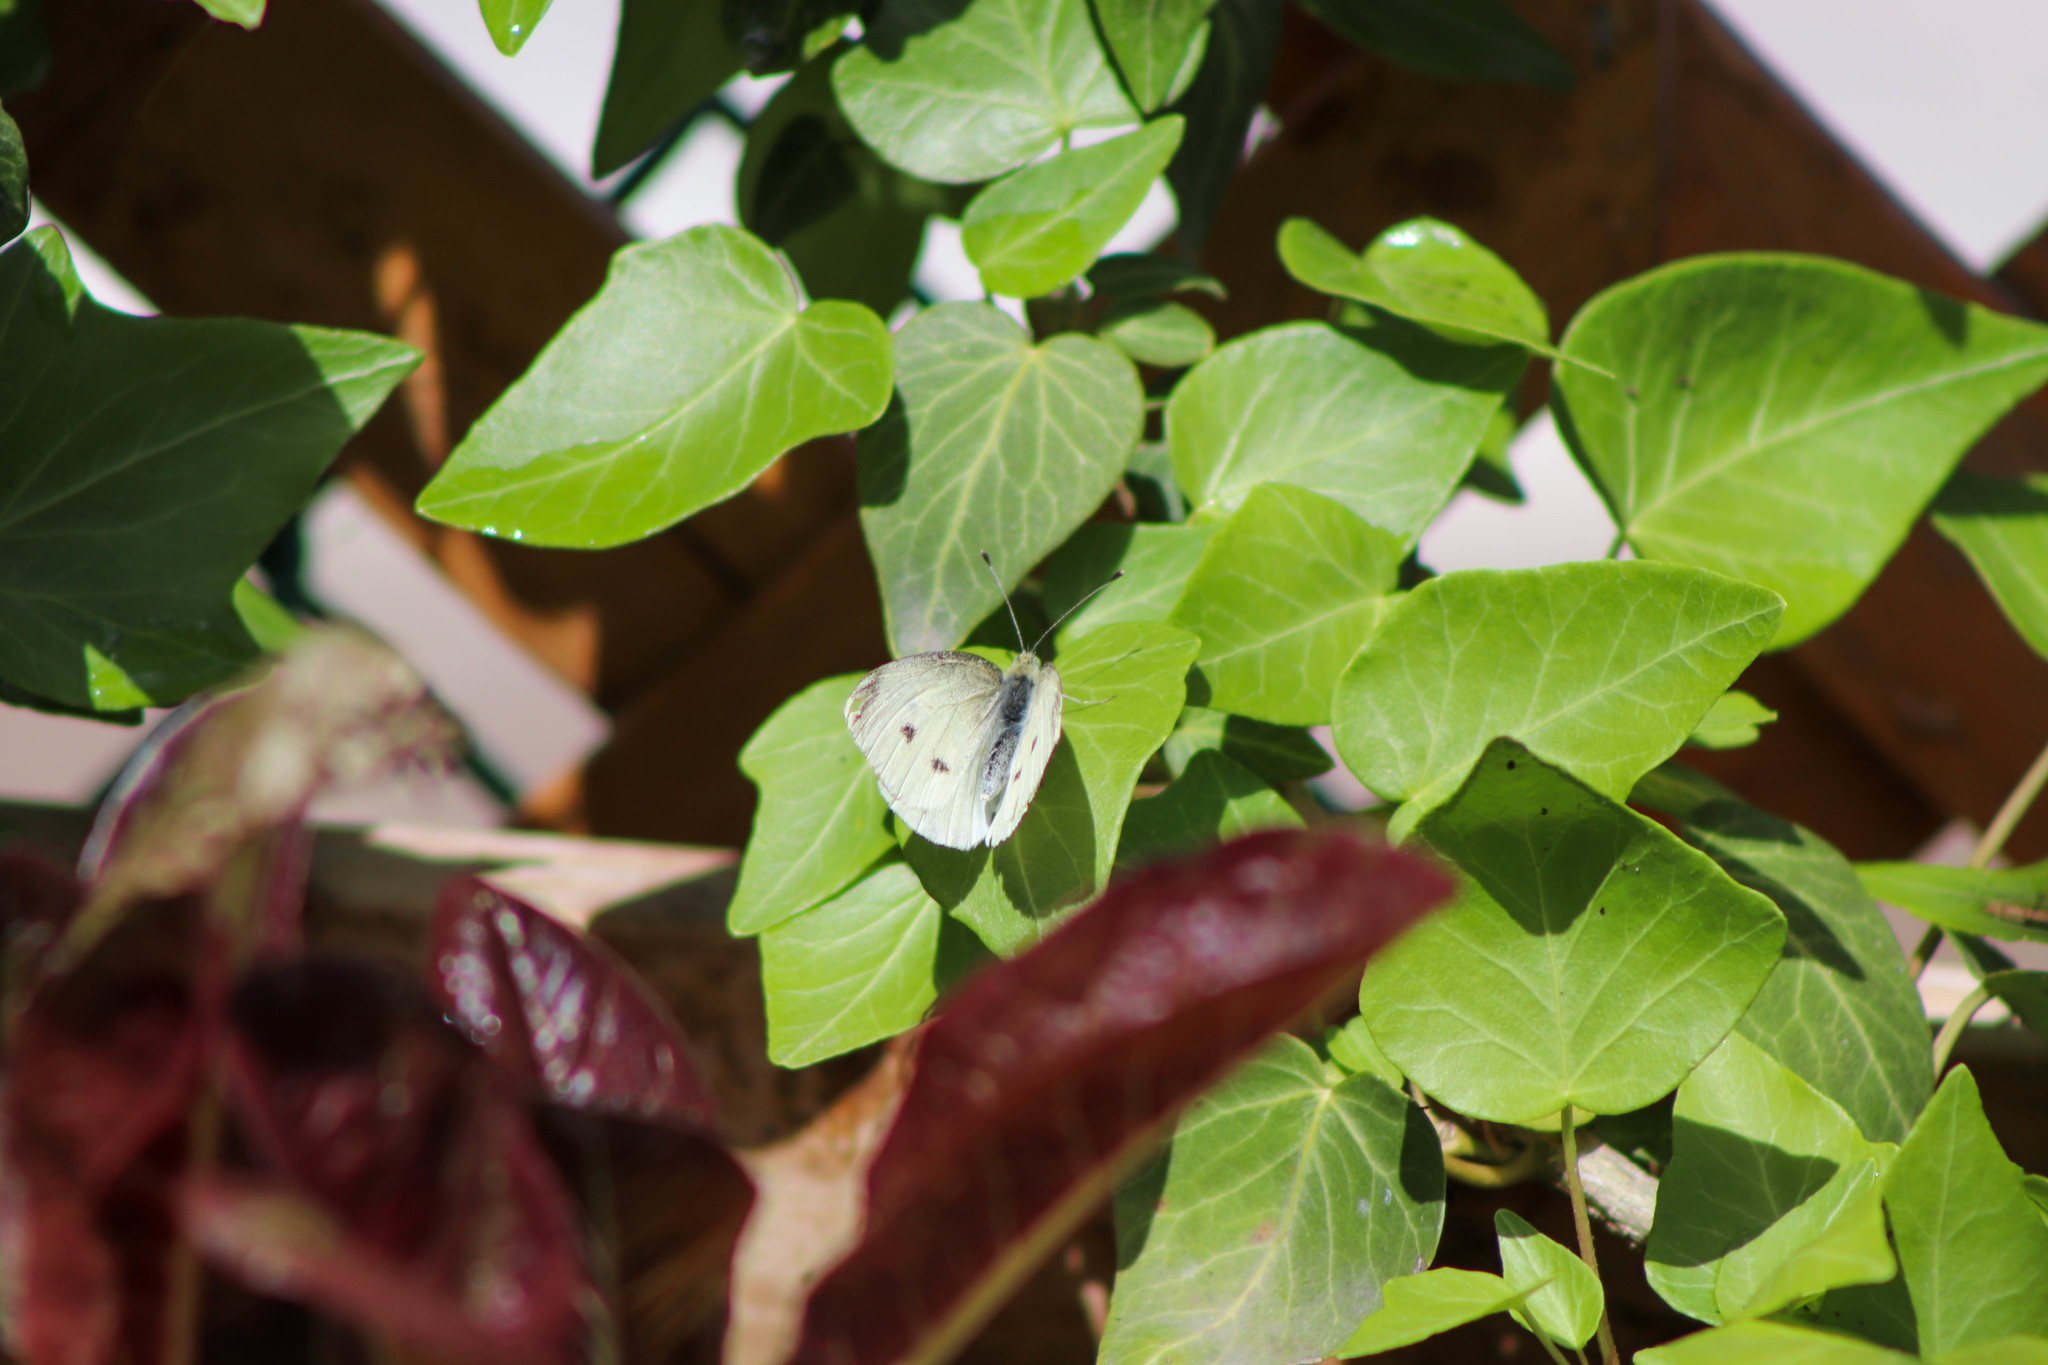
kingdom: Animalia
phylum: Arthropoda
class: Insecta
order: Lepidoptera
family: Pieridae
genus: Pieris
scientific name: Pieris rapae
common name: Small white
